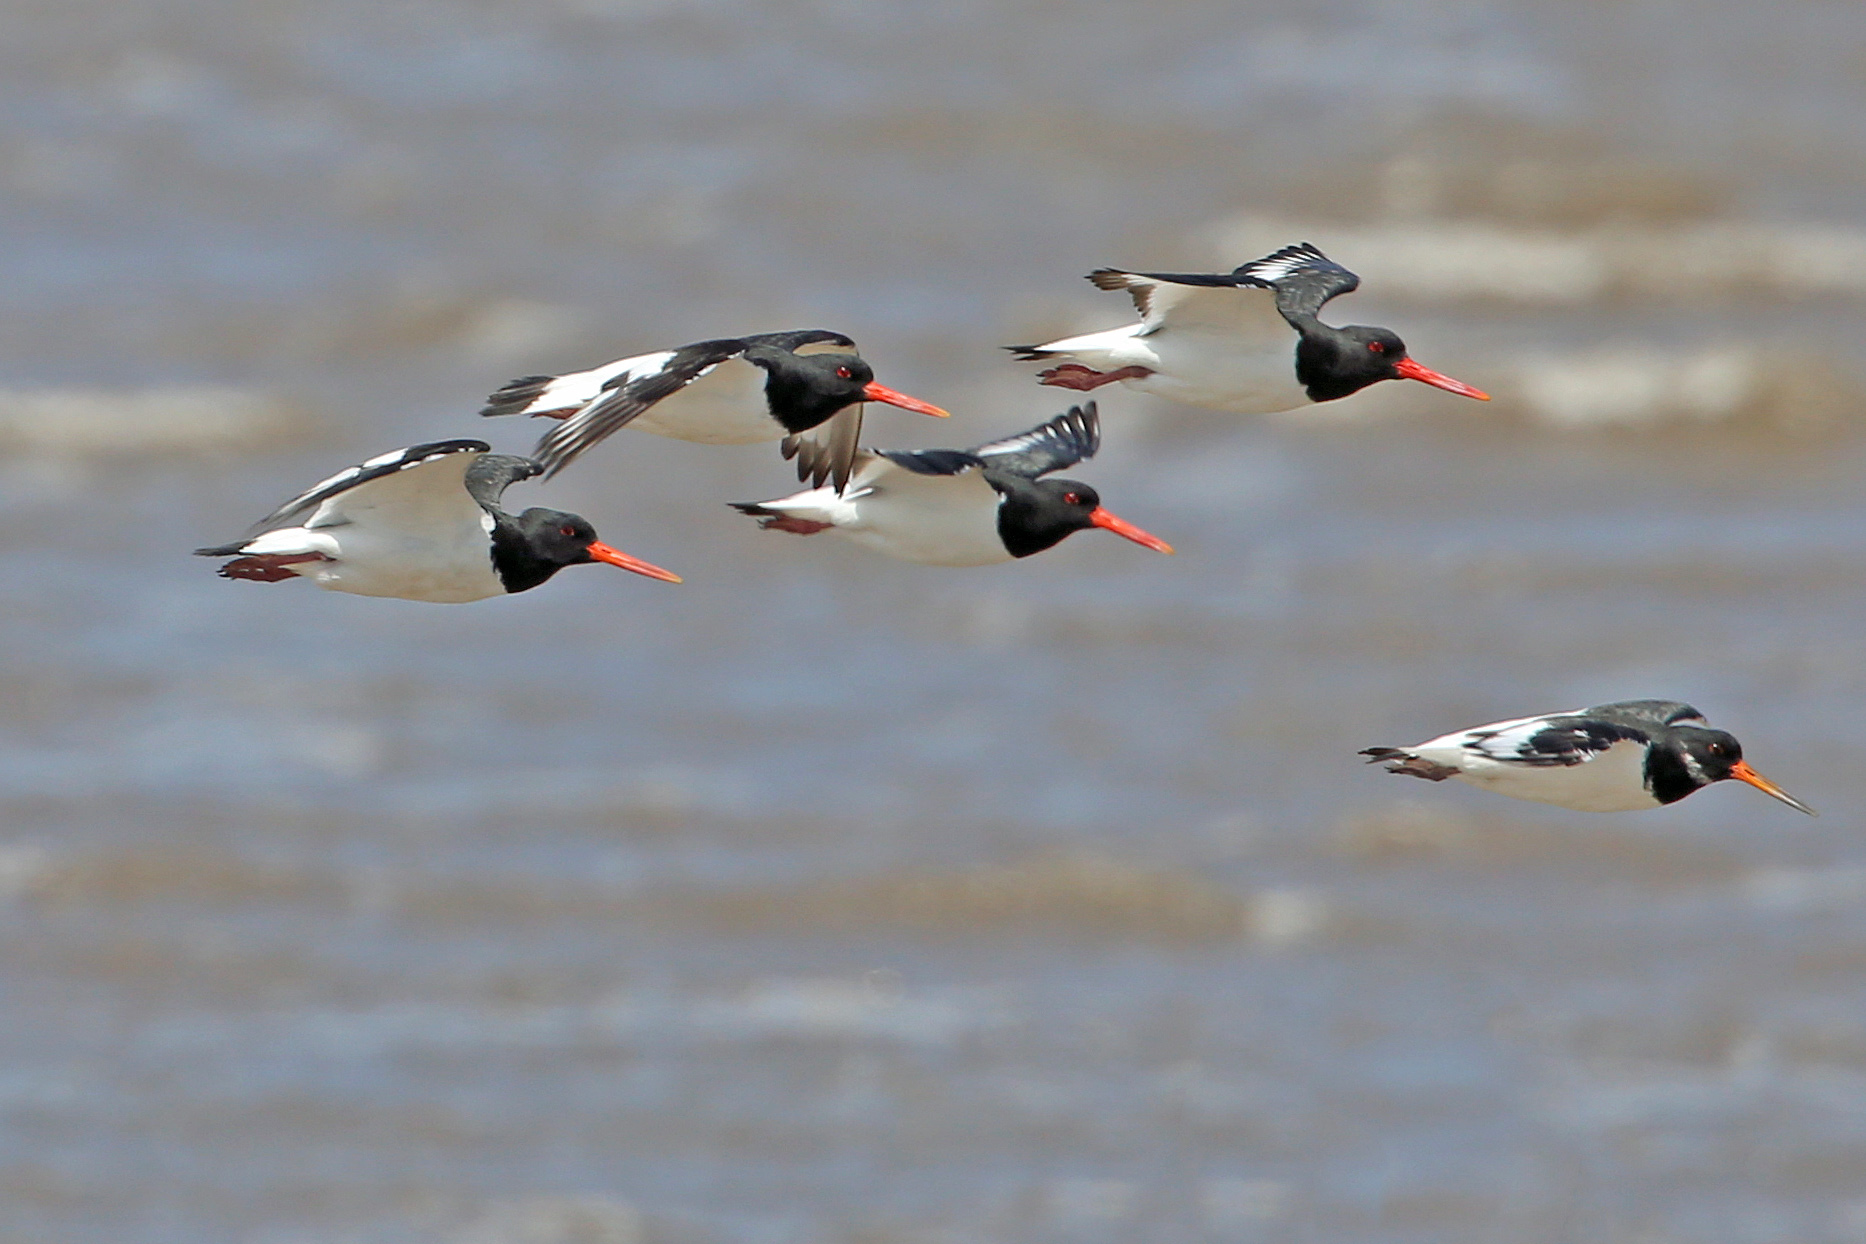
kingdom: Animalia
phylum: Chordata
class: Aves
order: Charadriiformes
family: Haematopodidae
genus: Haematopus
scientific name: Haematopus ostralegus
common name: Eurasian oystercatcher
